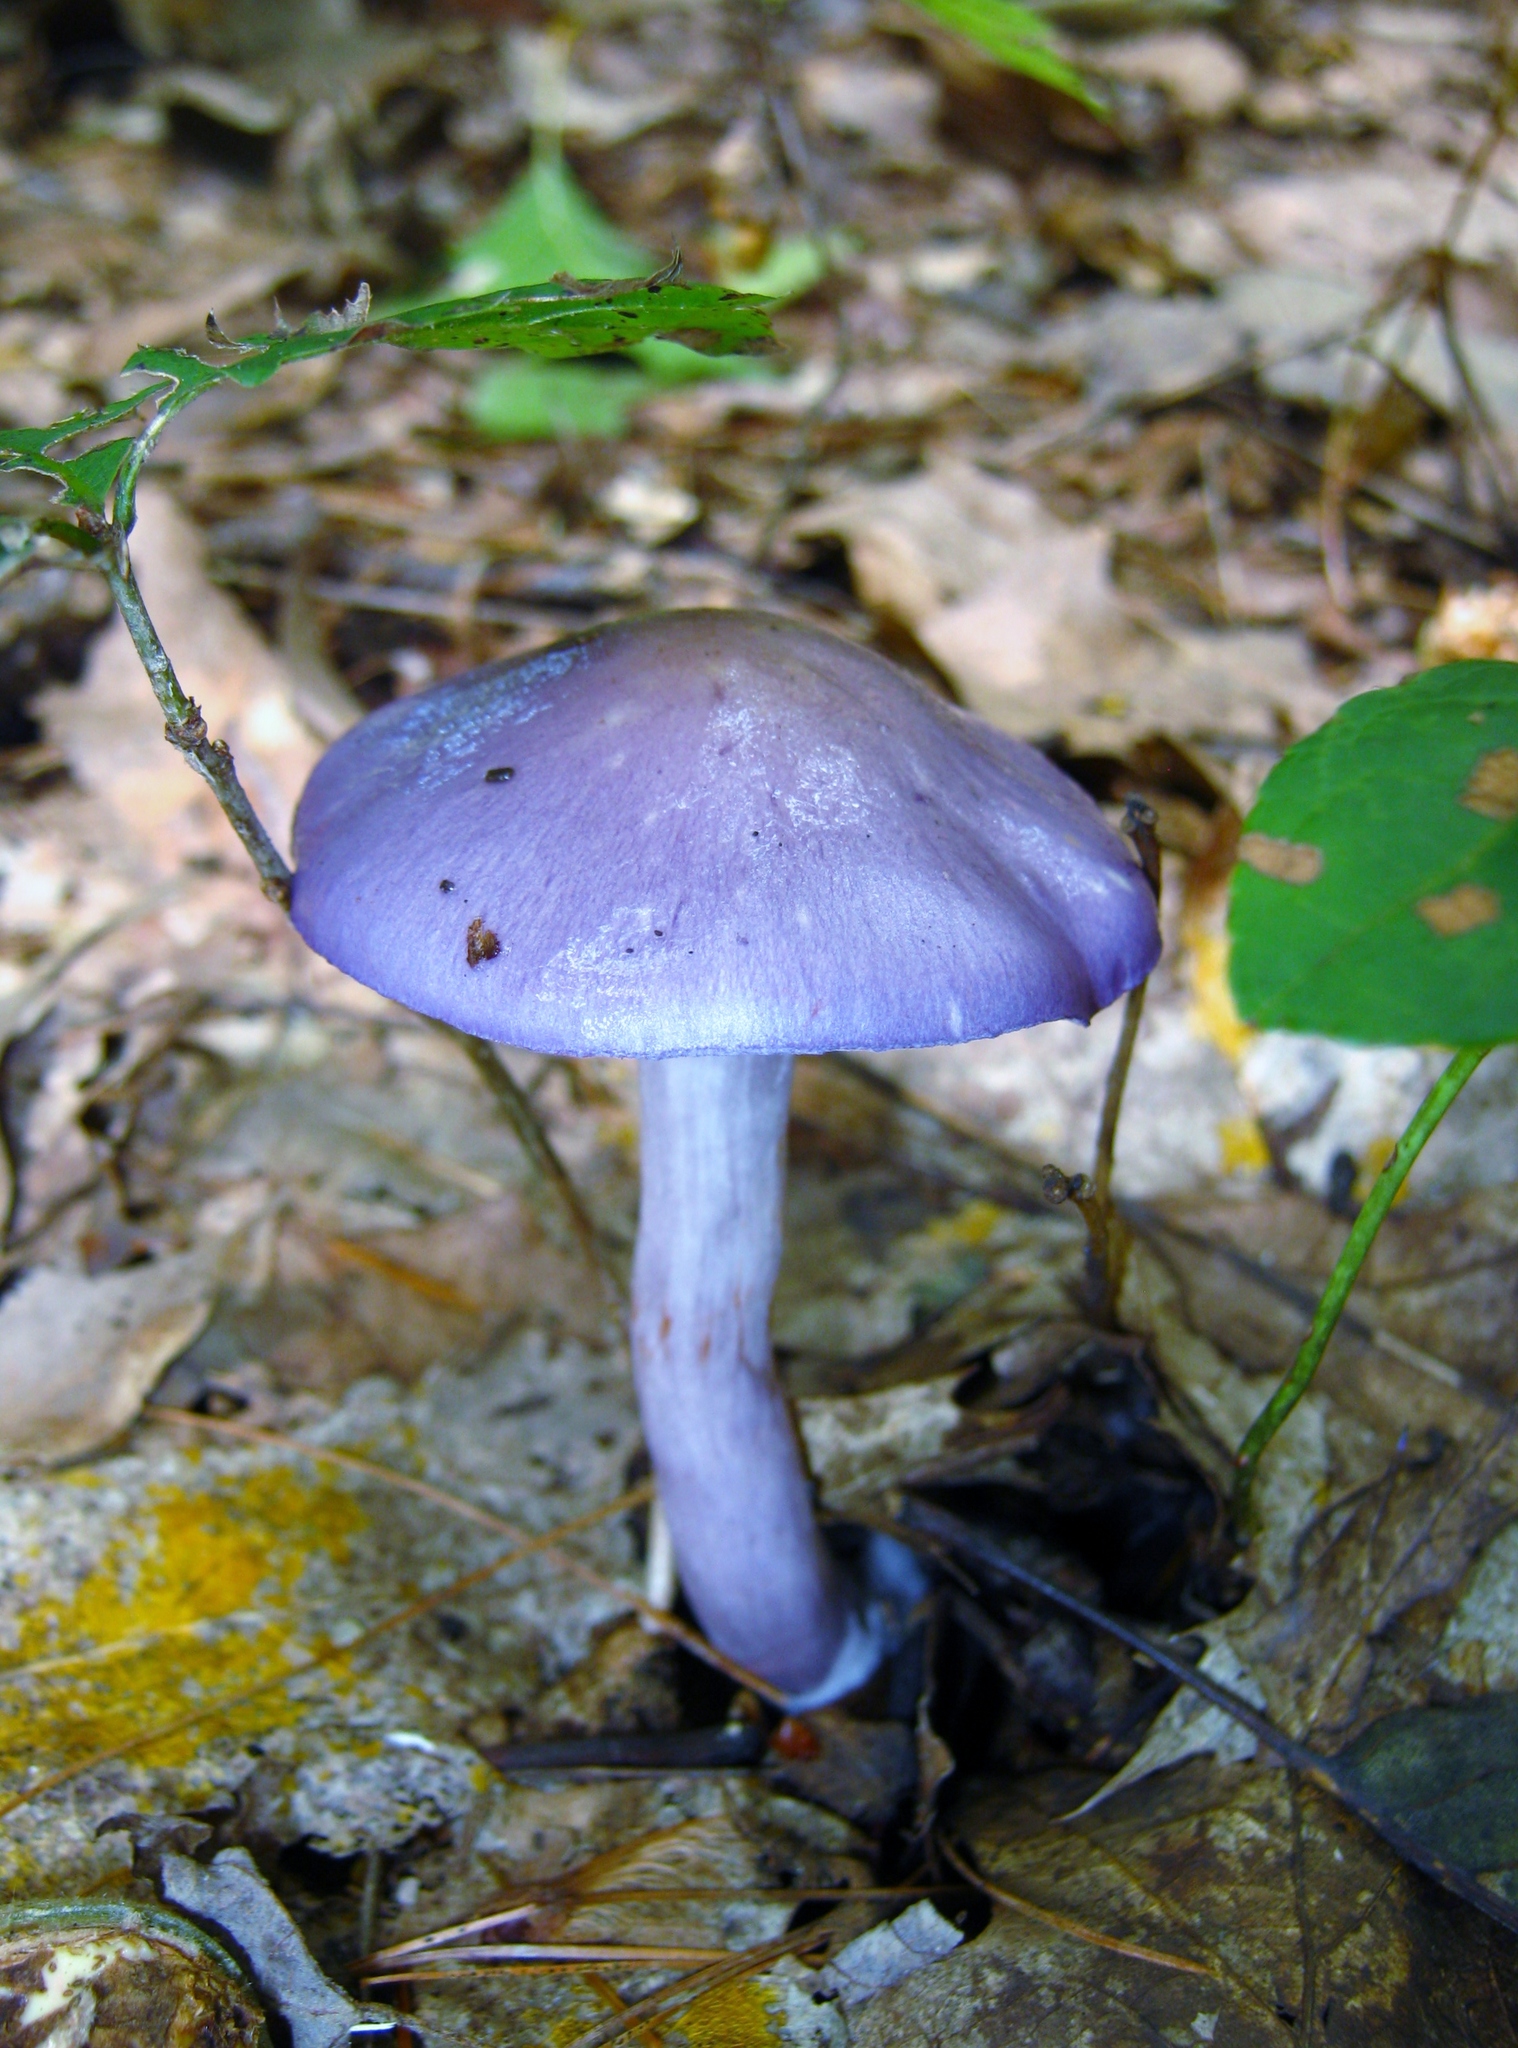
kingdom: Fungi
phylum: Basidiomycota
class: Agaricomycetes
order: Agaricales
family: Cortinariaceae
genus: Cortinarius
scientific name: Cortinarius iodes
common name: Viscid violet cort
